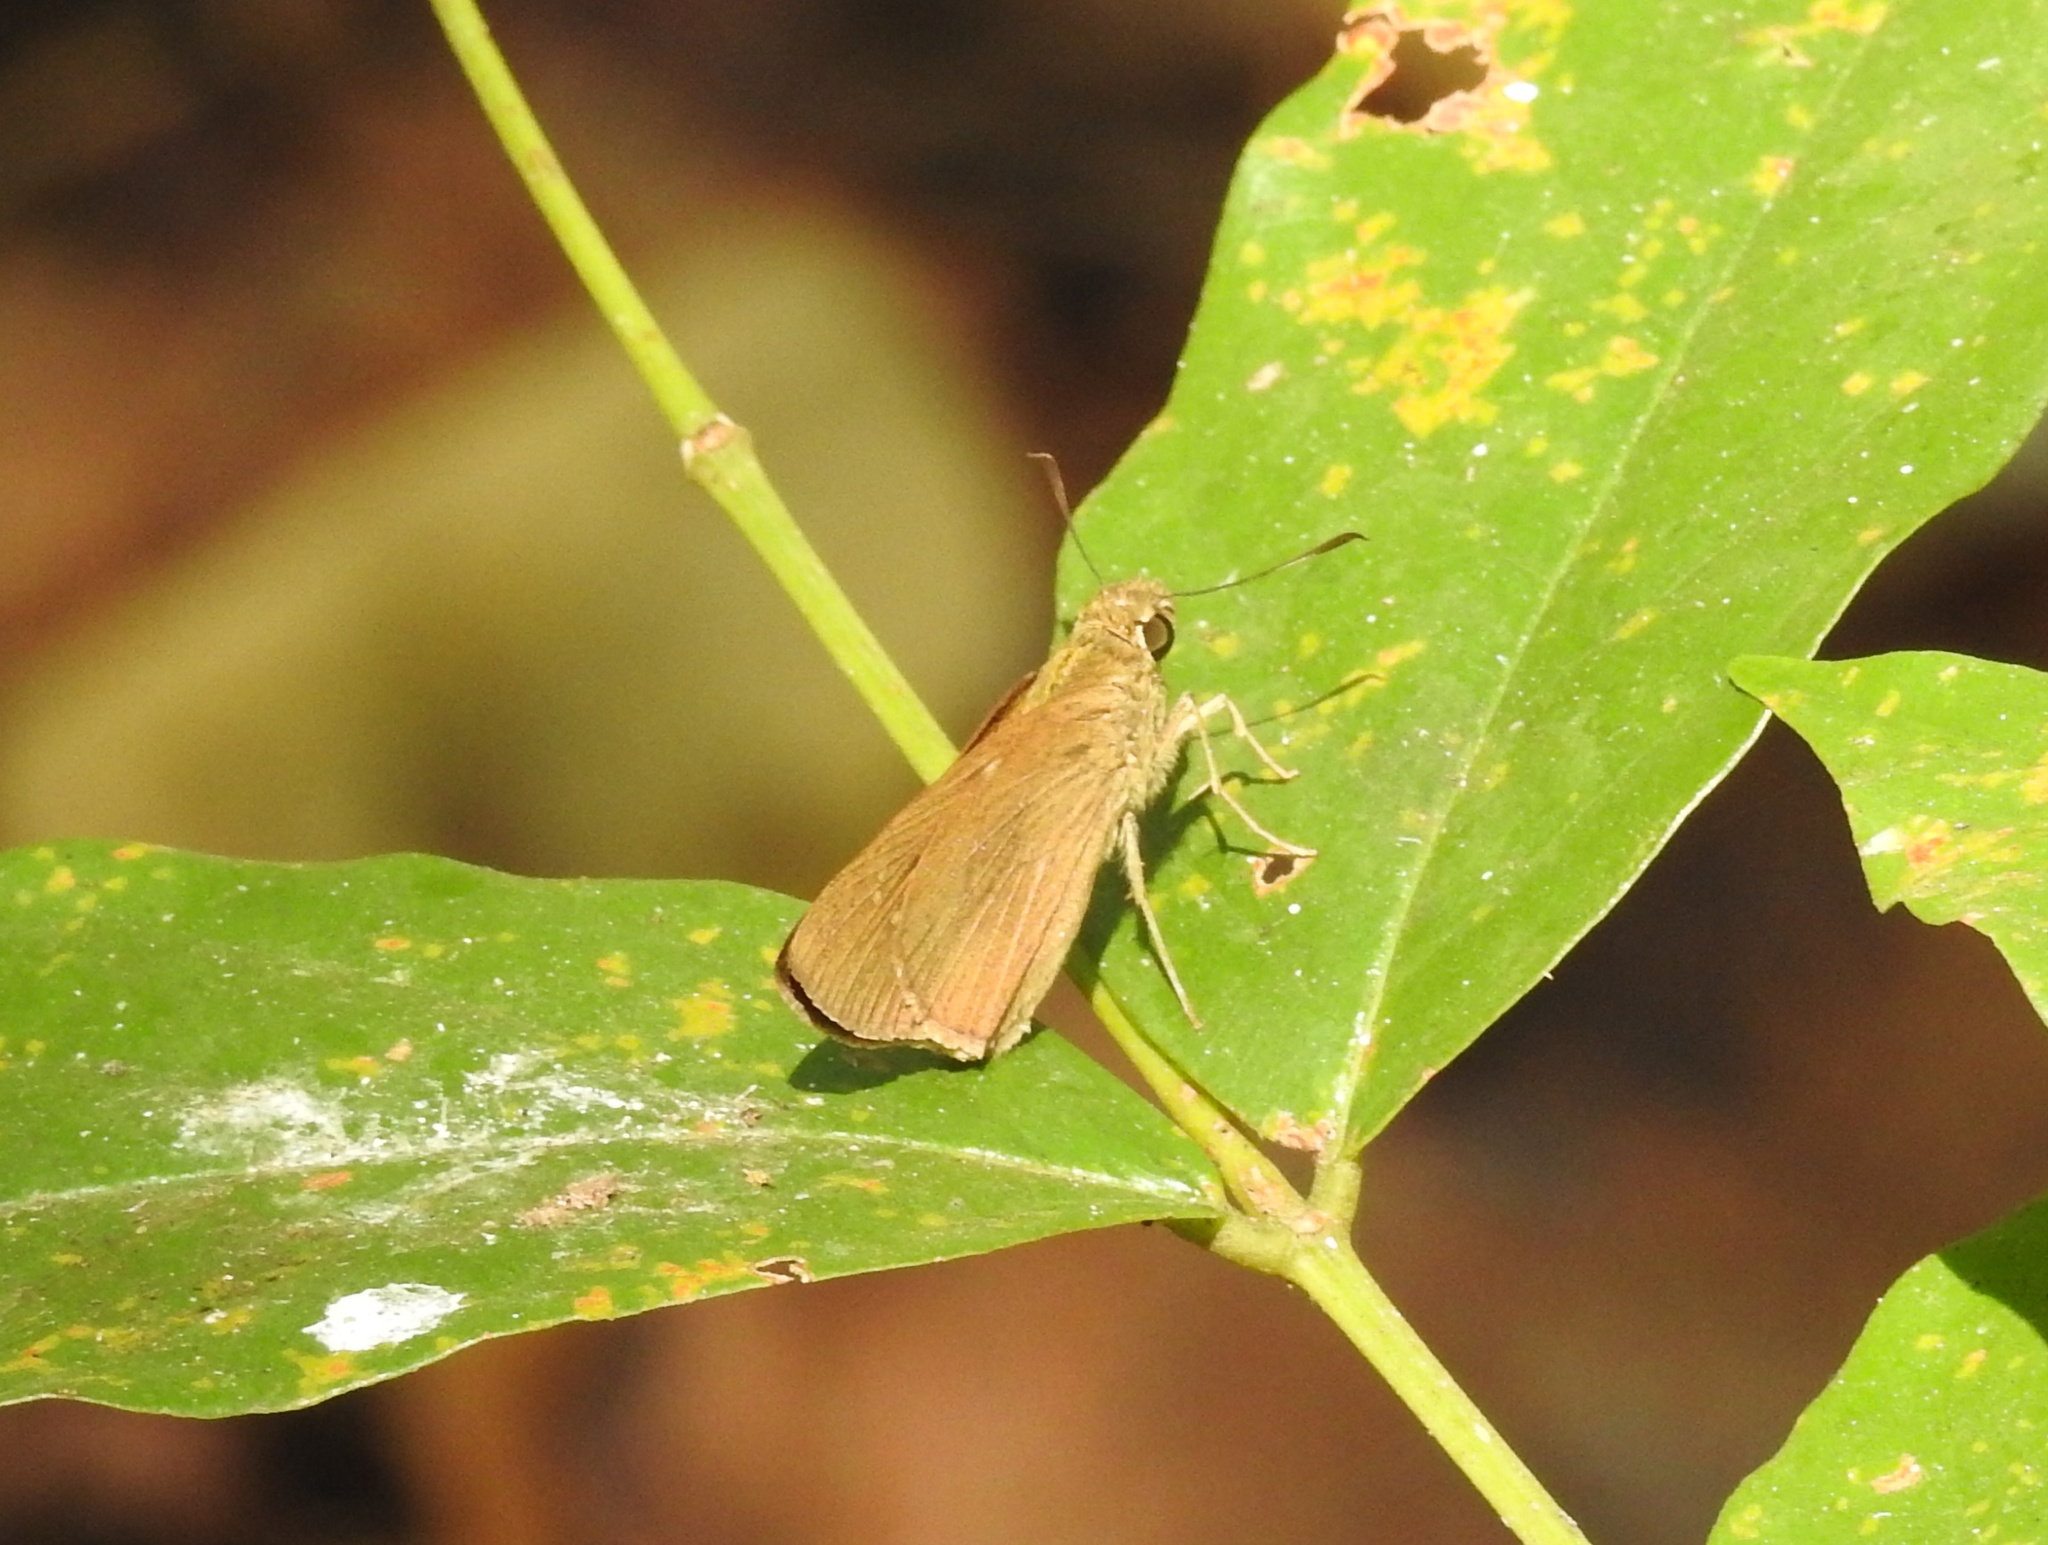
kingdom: Animalia
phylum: Arthropoda
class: Insecta
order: Lepidoptera
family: Hesperiidae
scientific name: Hesperiidae
